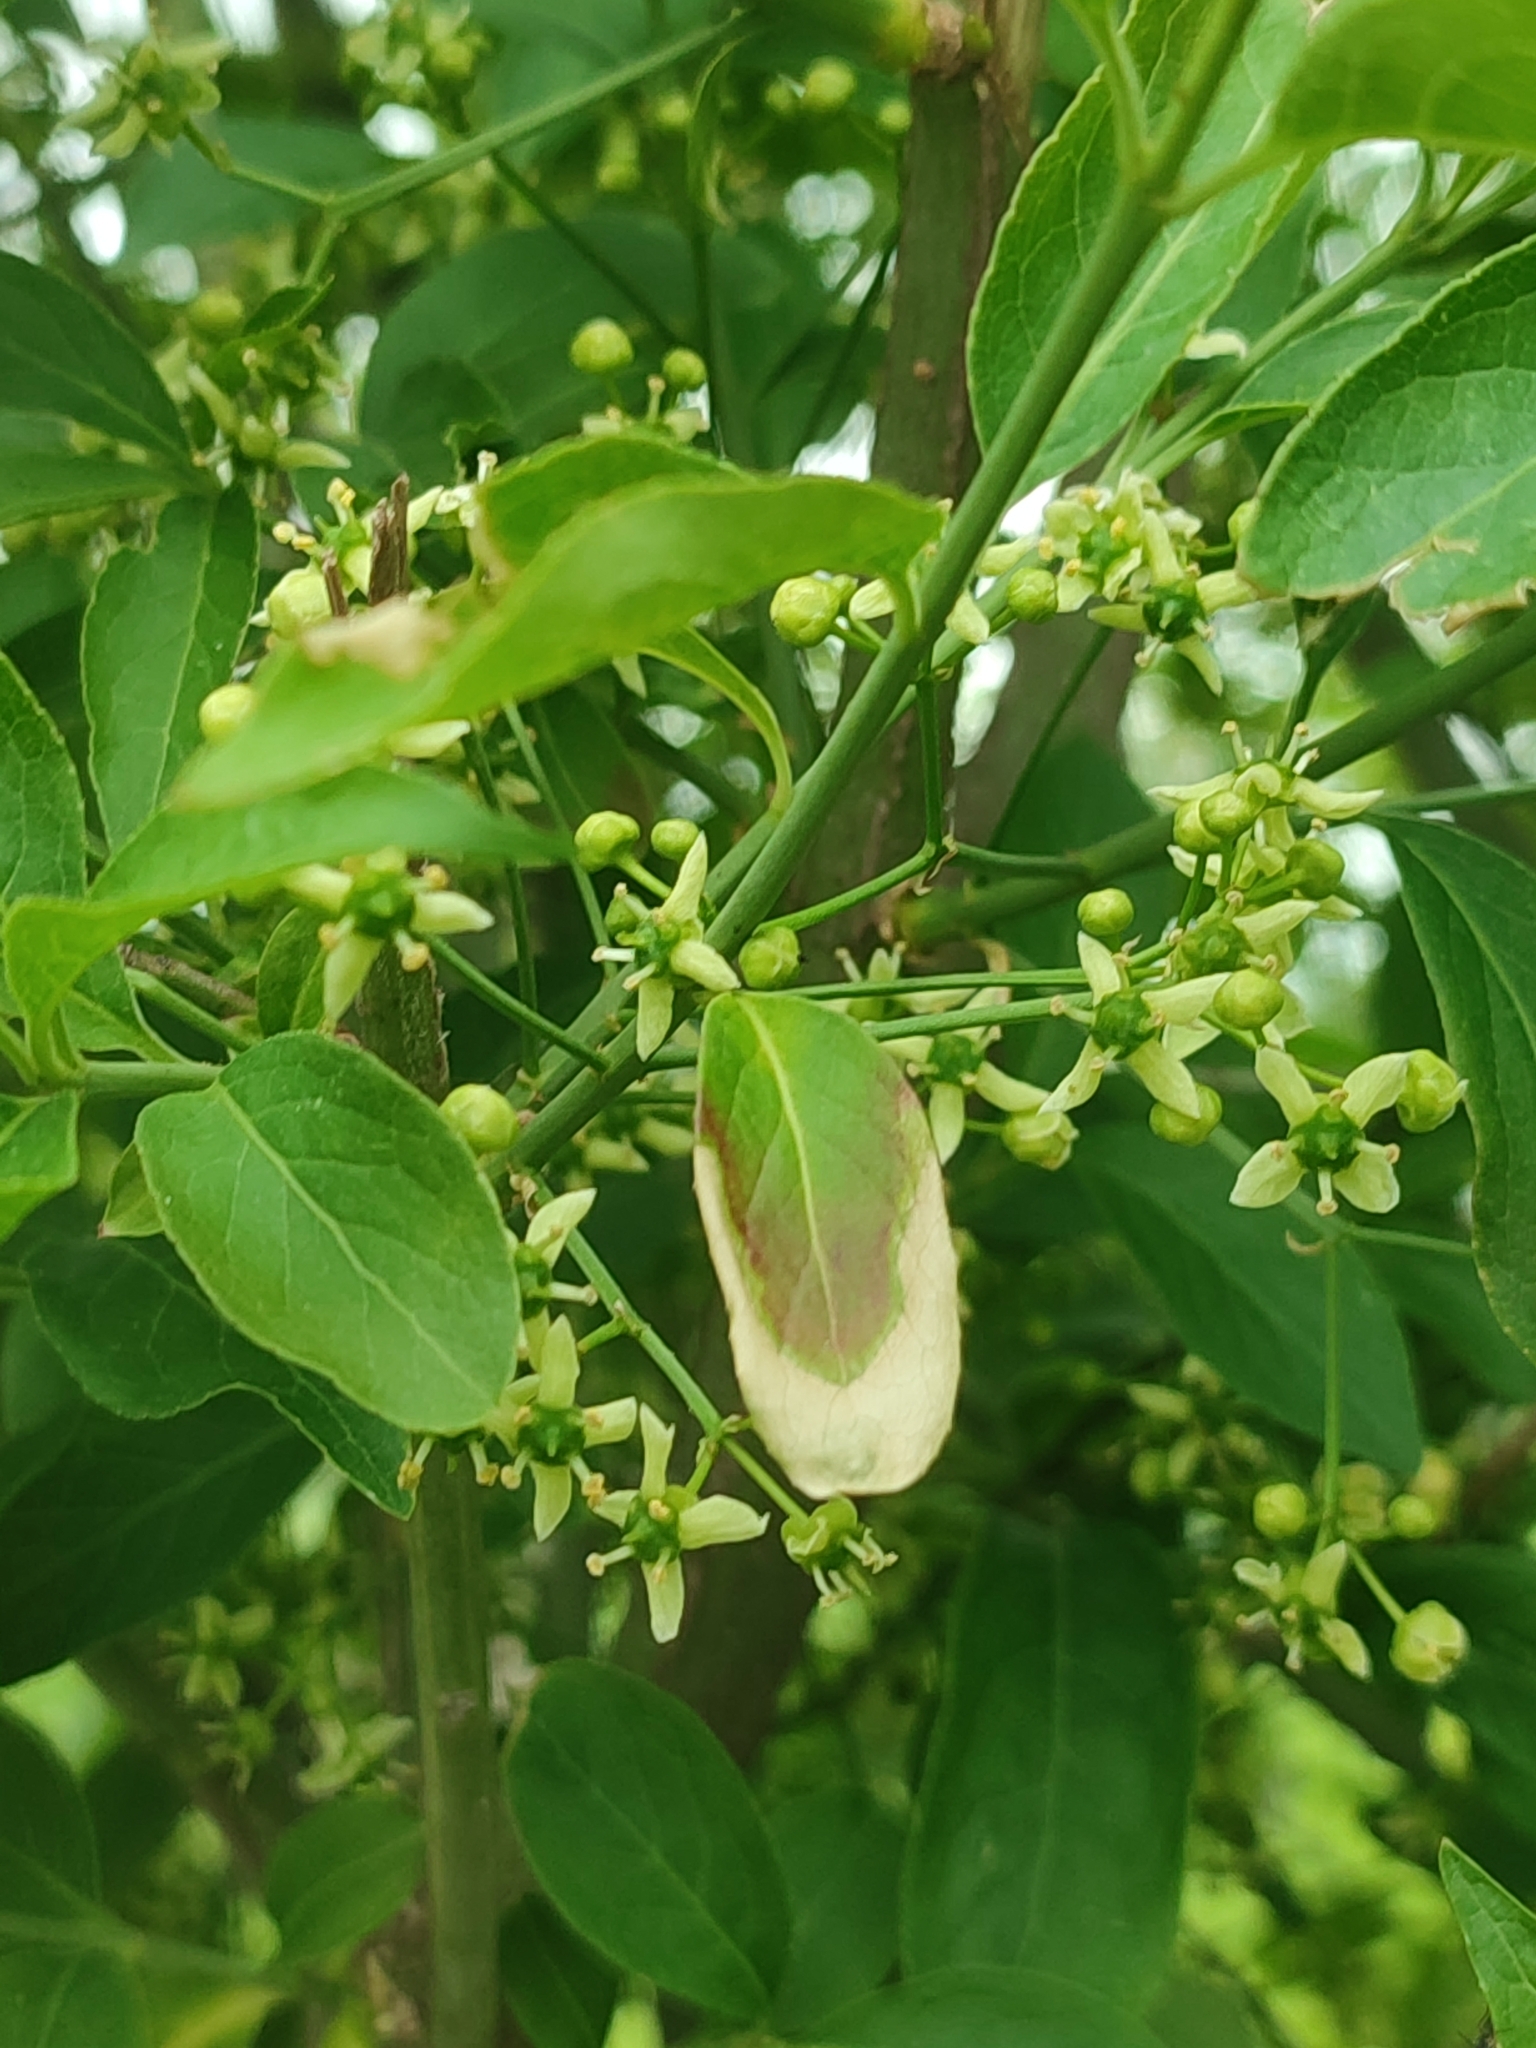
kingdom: Plantae
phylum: Tracheophyta
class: Magnoliopsida
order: Celastrales
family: Celastraceae
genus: Euonymus
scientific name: Euonymus europaeus
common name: Spindle
